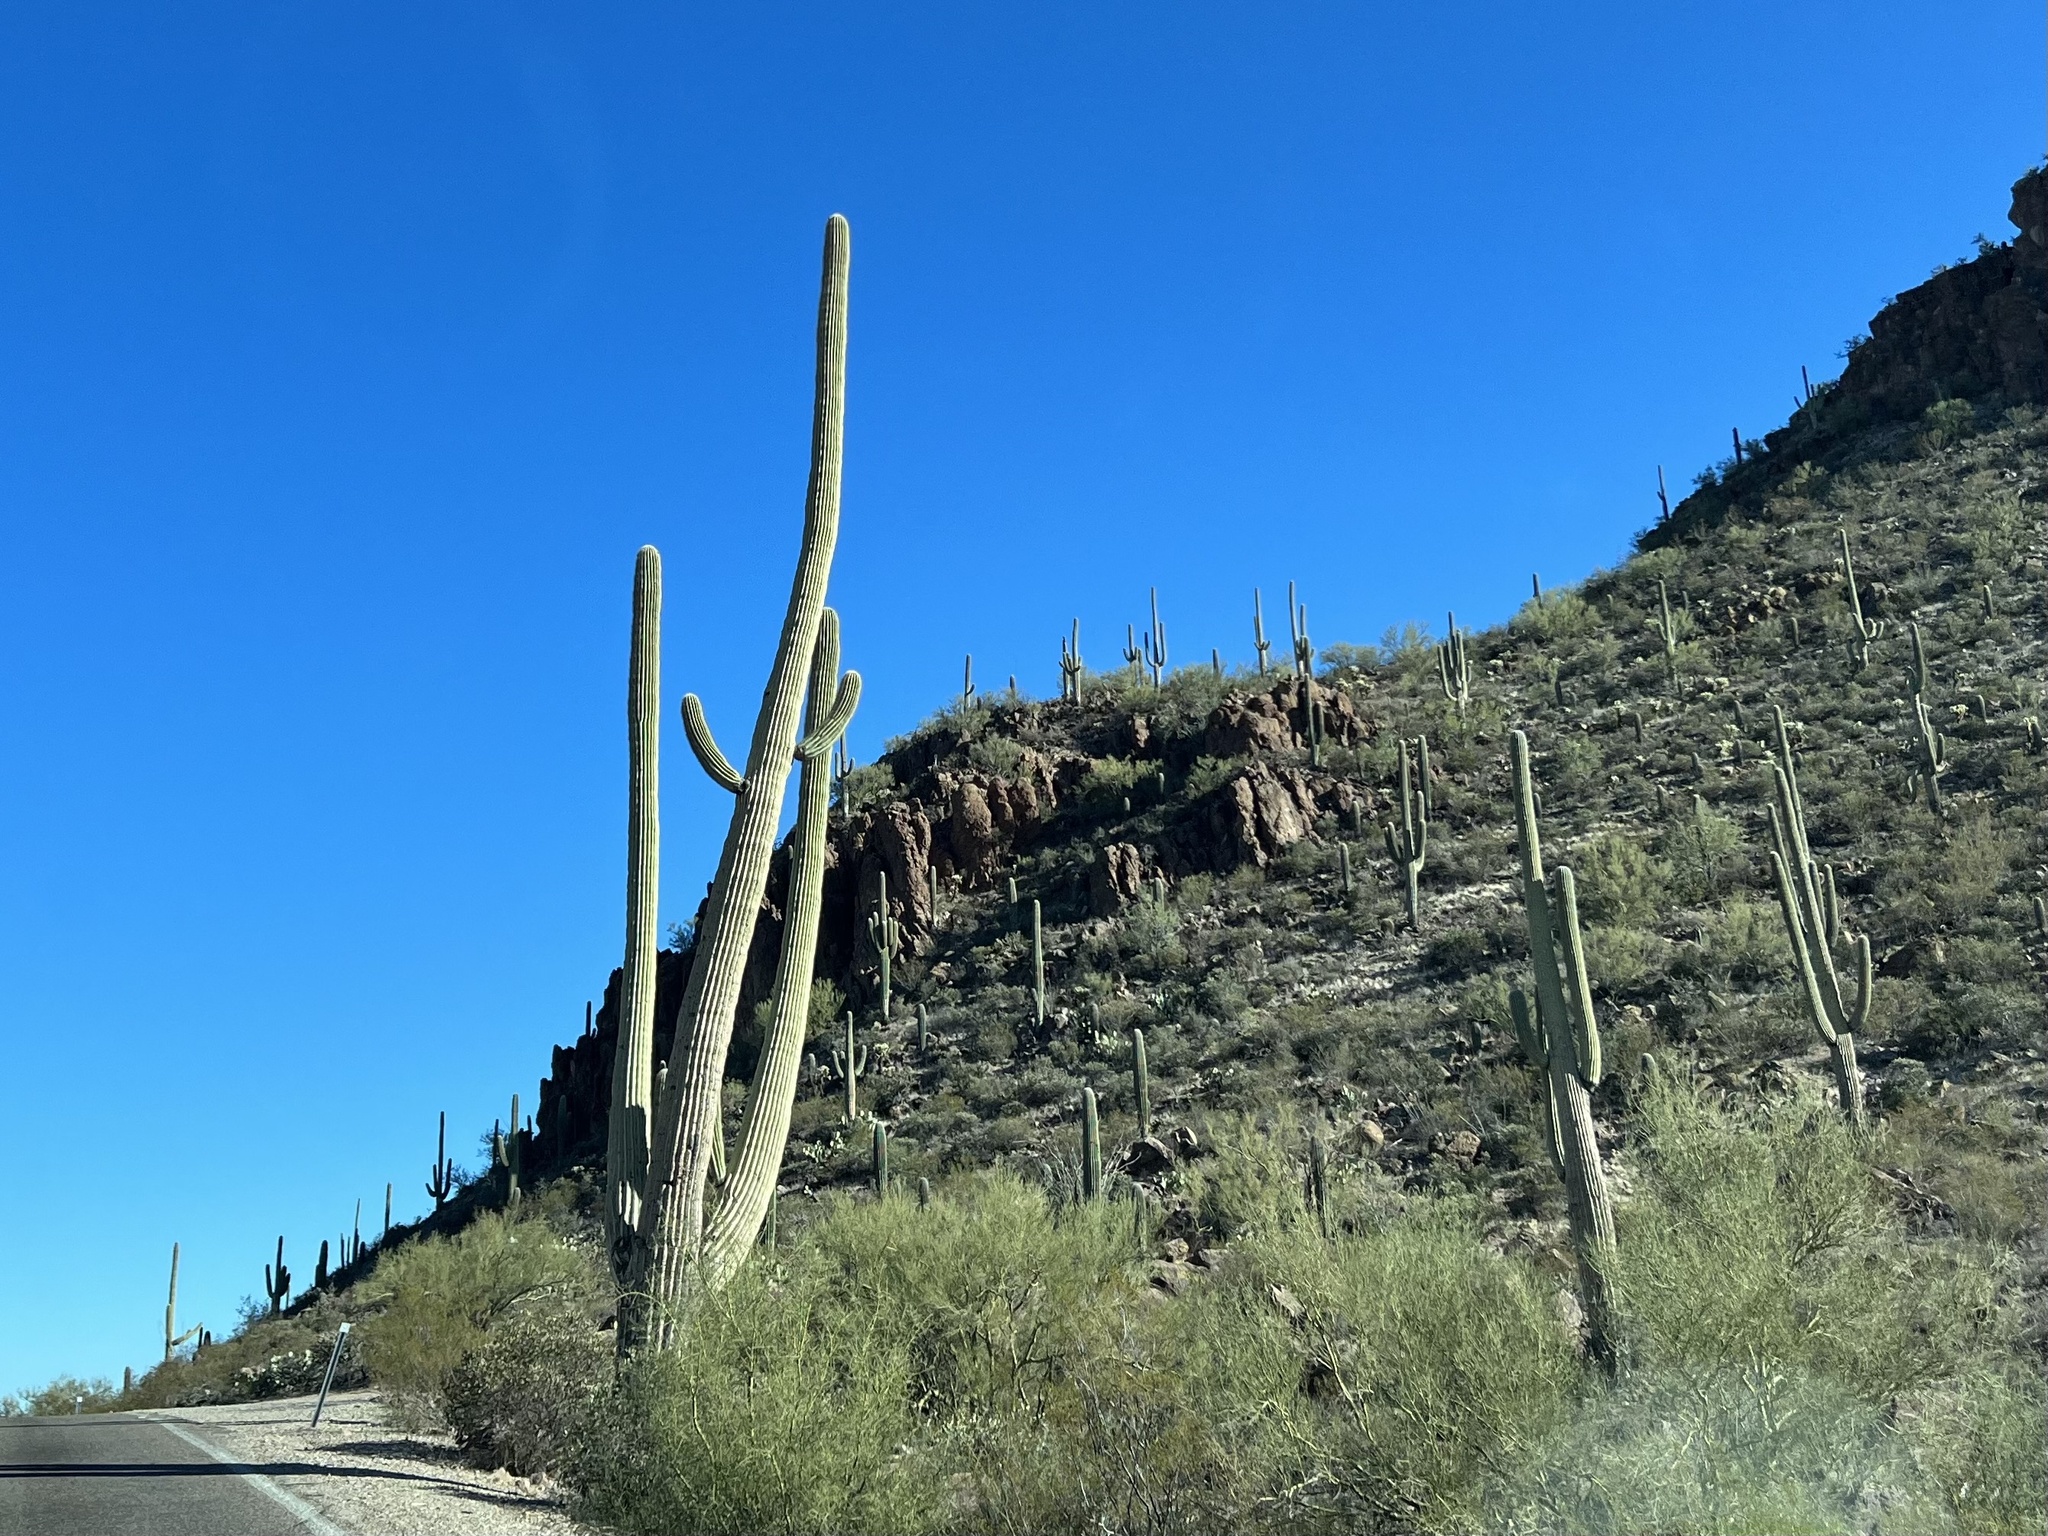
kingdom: Plantae
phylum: Tracheophyta
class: Magnoliopsida
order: Caryophyllales
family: Cactaceae
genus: Carnegiea
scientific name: Carnegiea gigantea
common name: Saguaro
